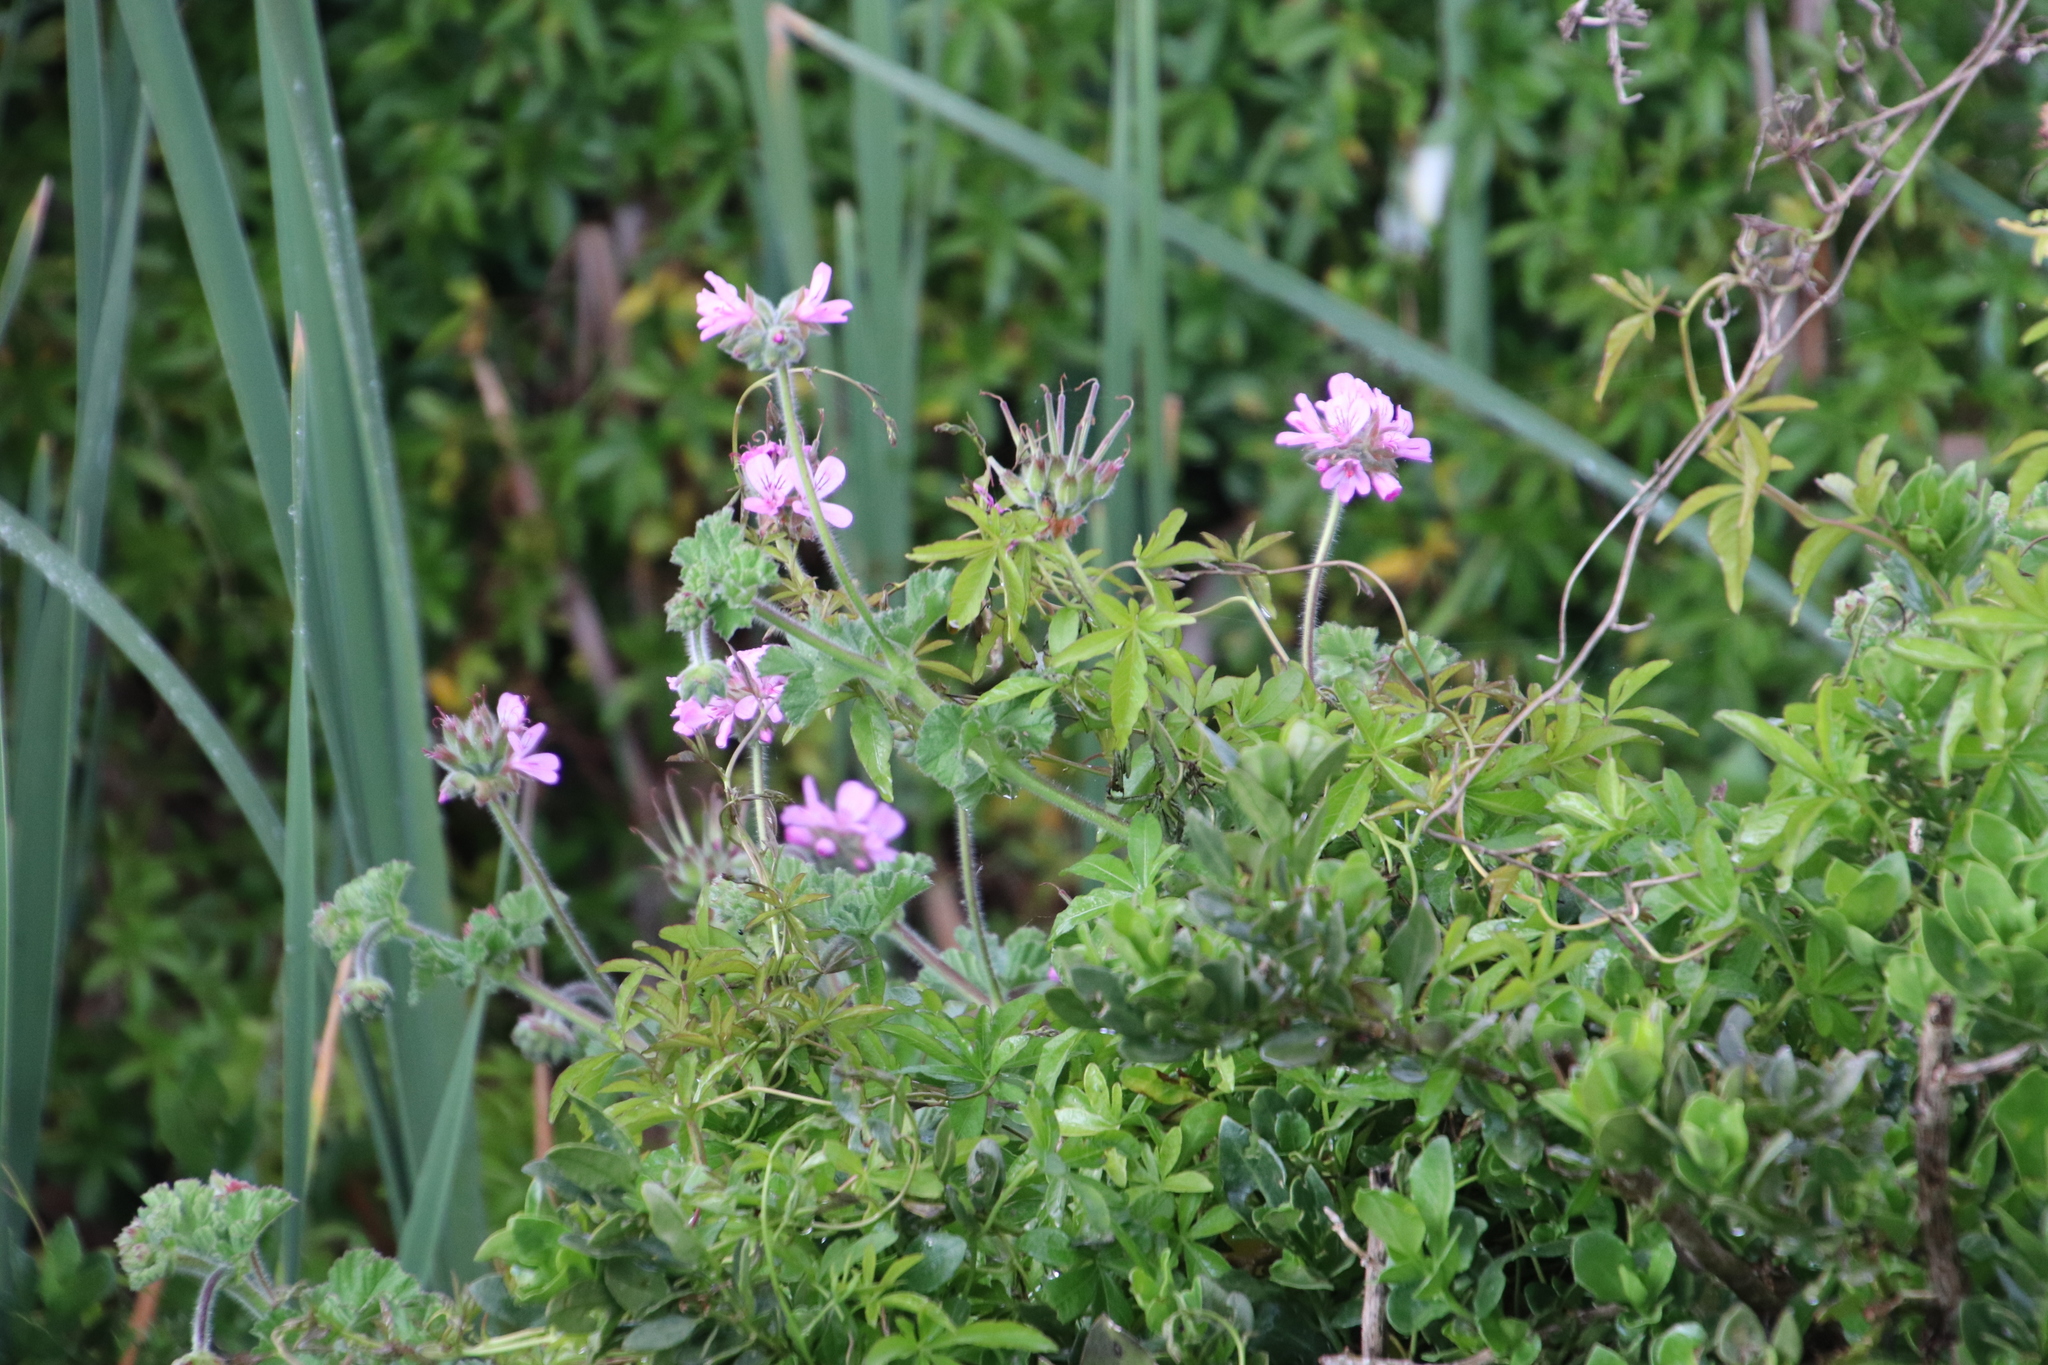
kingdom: Plantae
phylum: Tracheophyta
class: Magnoliopsida
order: Geraniales
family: Geraniaceae
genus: Pelargonium
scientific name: Pelargonium capitatum
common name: Rose scented geranium
